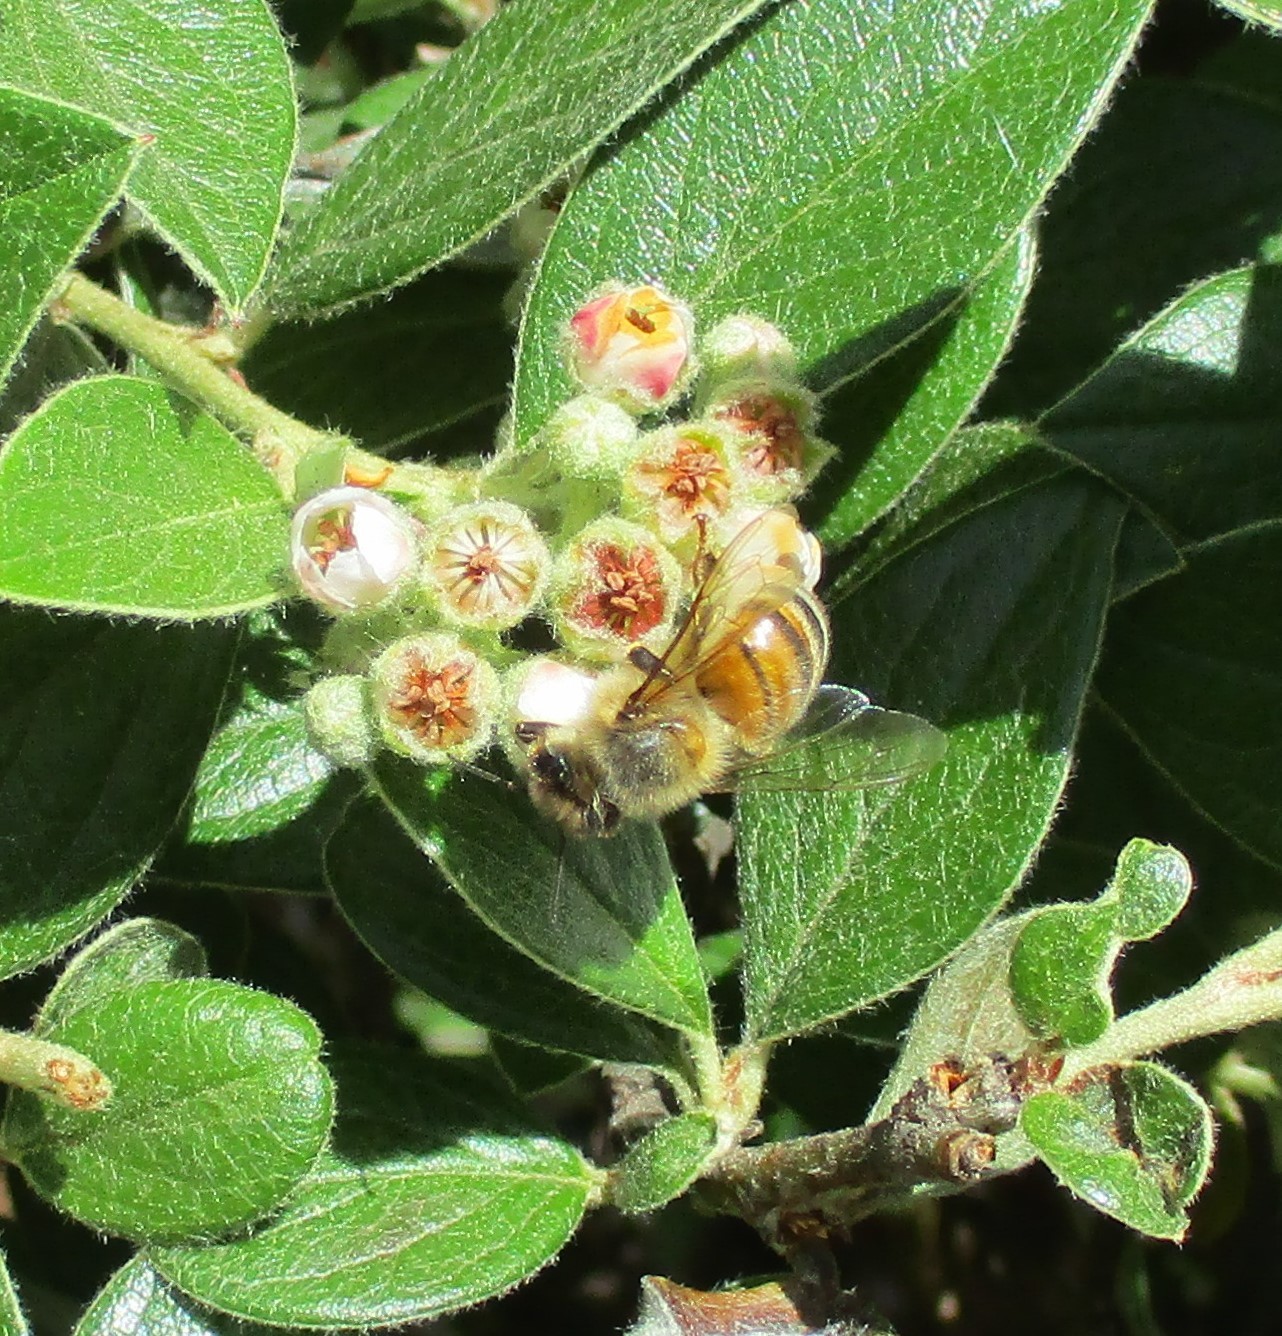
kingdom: Animalia
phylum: Arthropoda
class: Insecta
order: Hymenoptera
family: Apidae
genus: Apis
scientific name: Apis mellifera
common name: Honey bee
